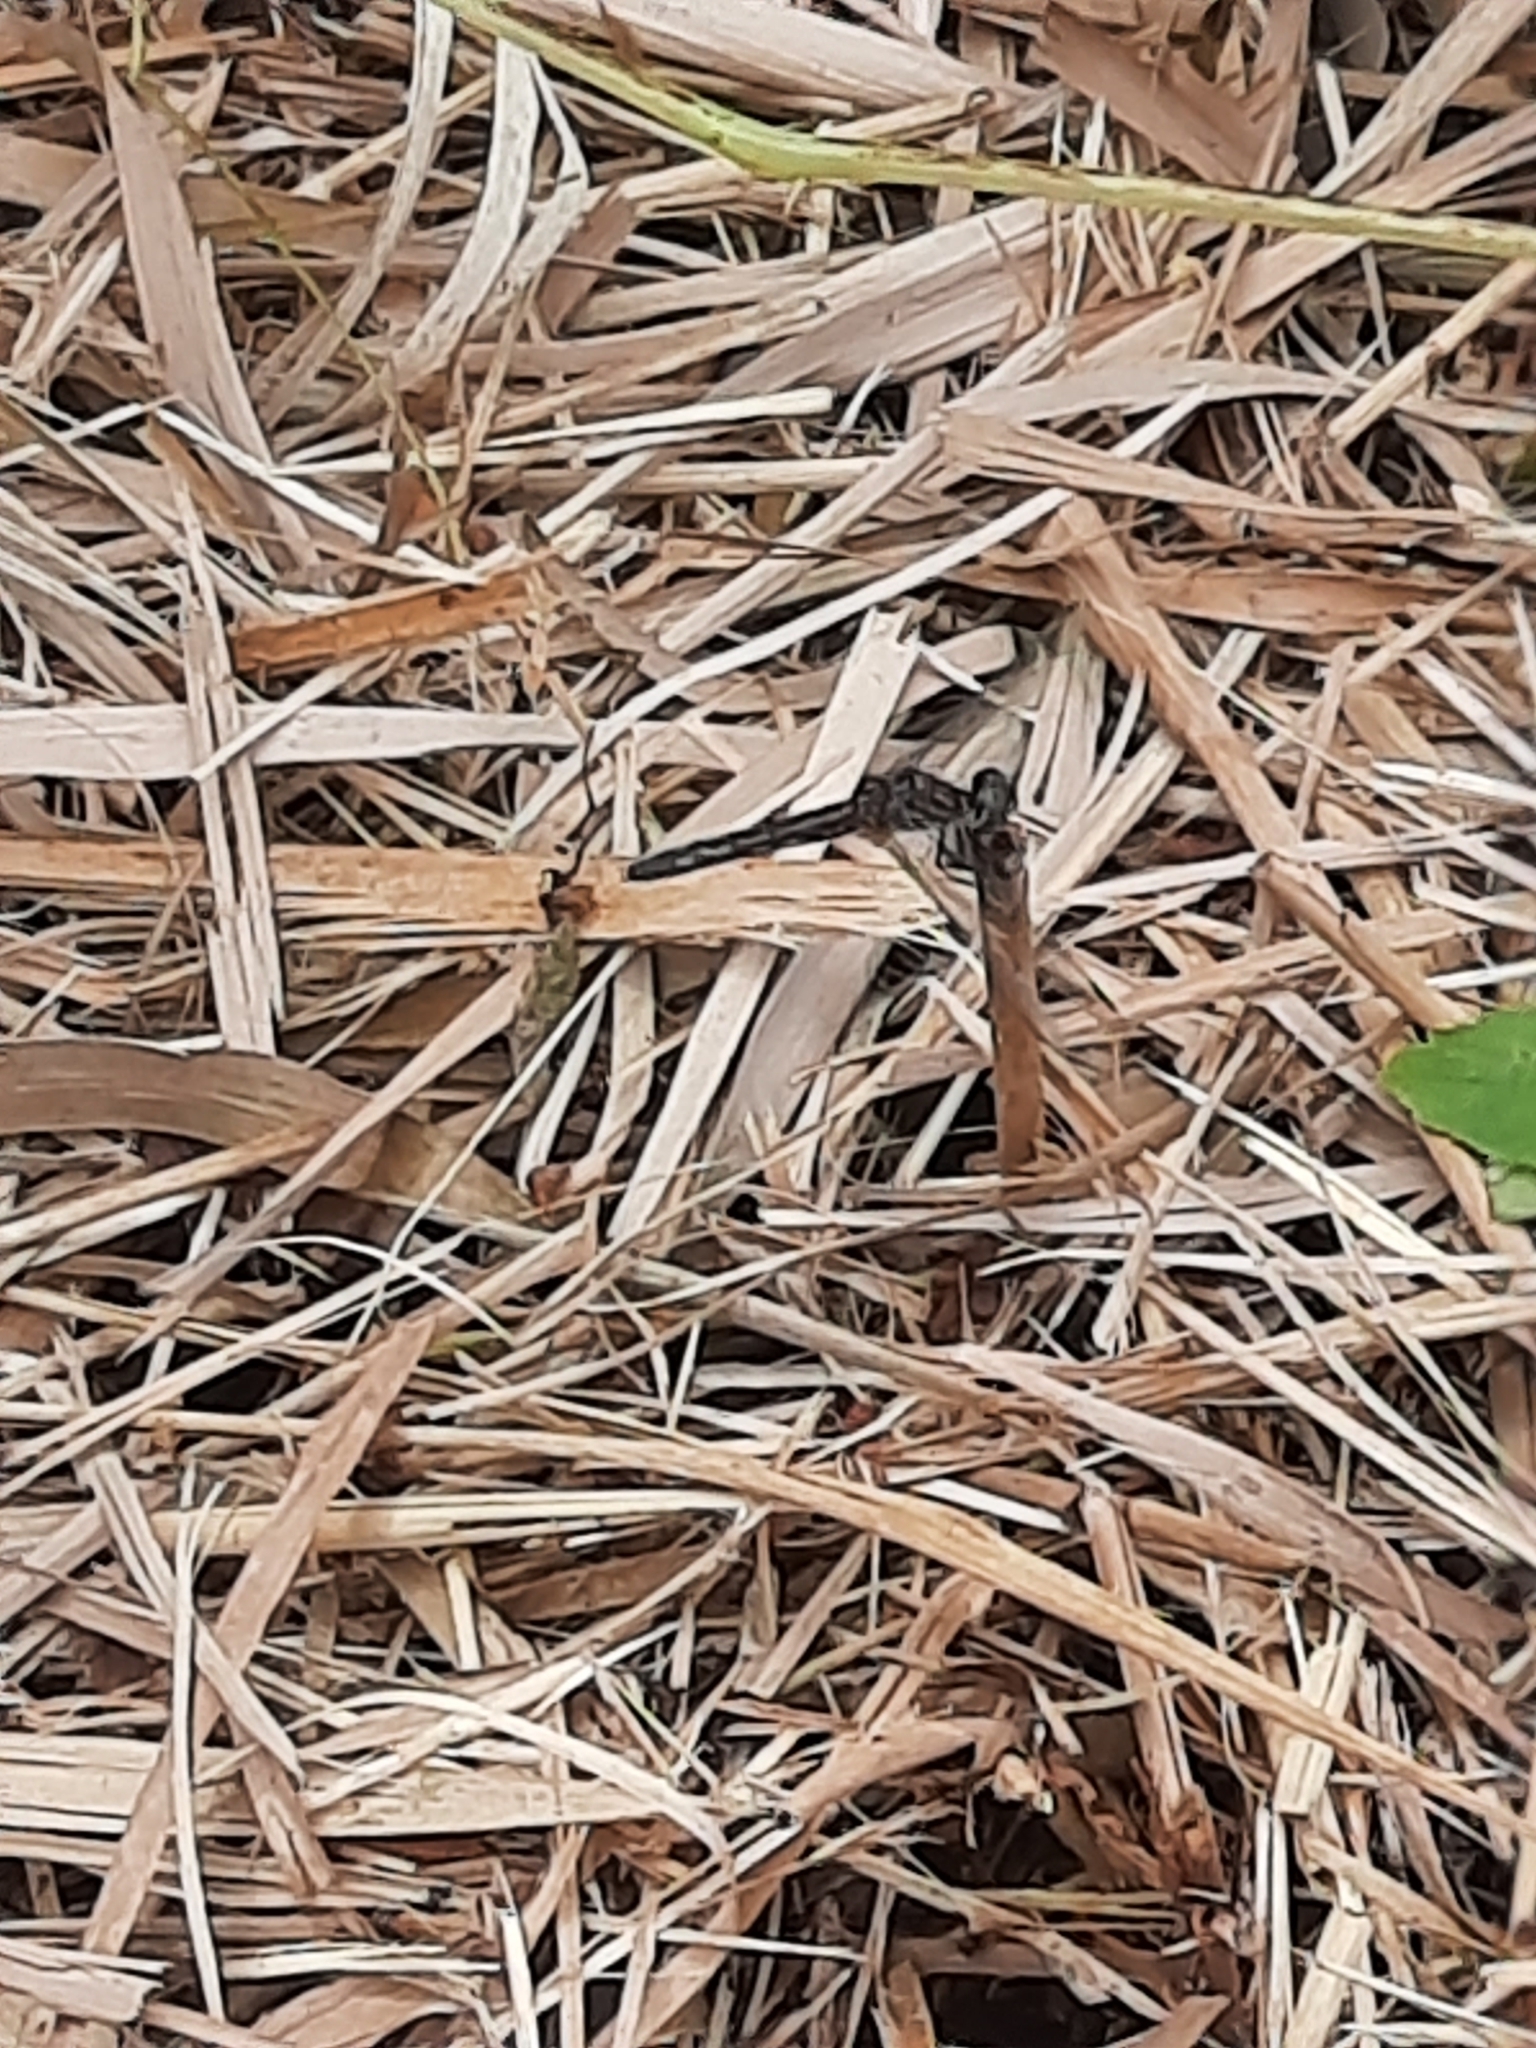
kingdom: Animalia
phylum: Arthropoda
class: Insecta
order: Odonata
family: Libellulidae
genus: Pachydiplax
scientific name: Pachydiplax longipennis
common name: Blue dasher
